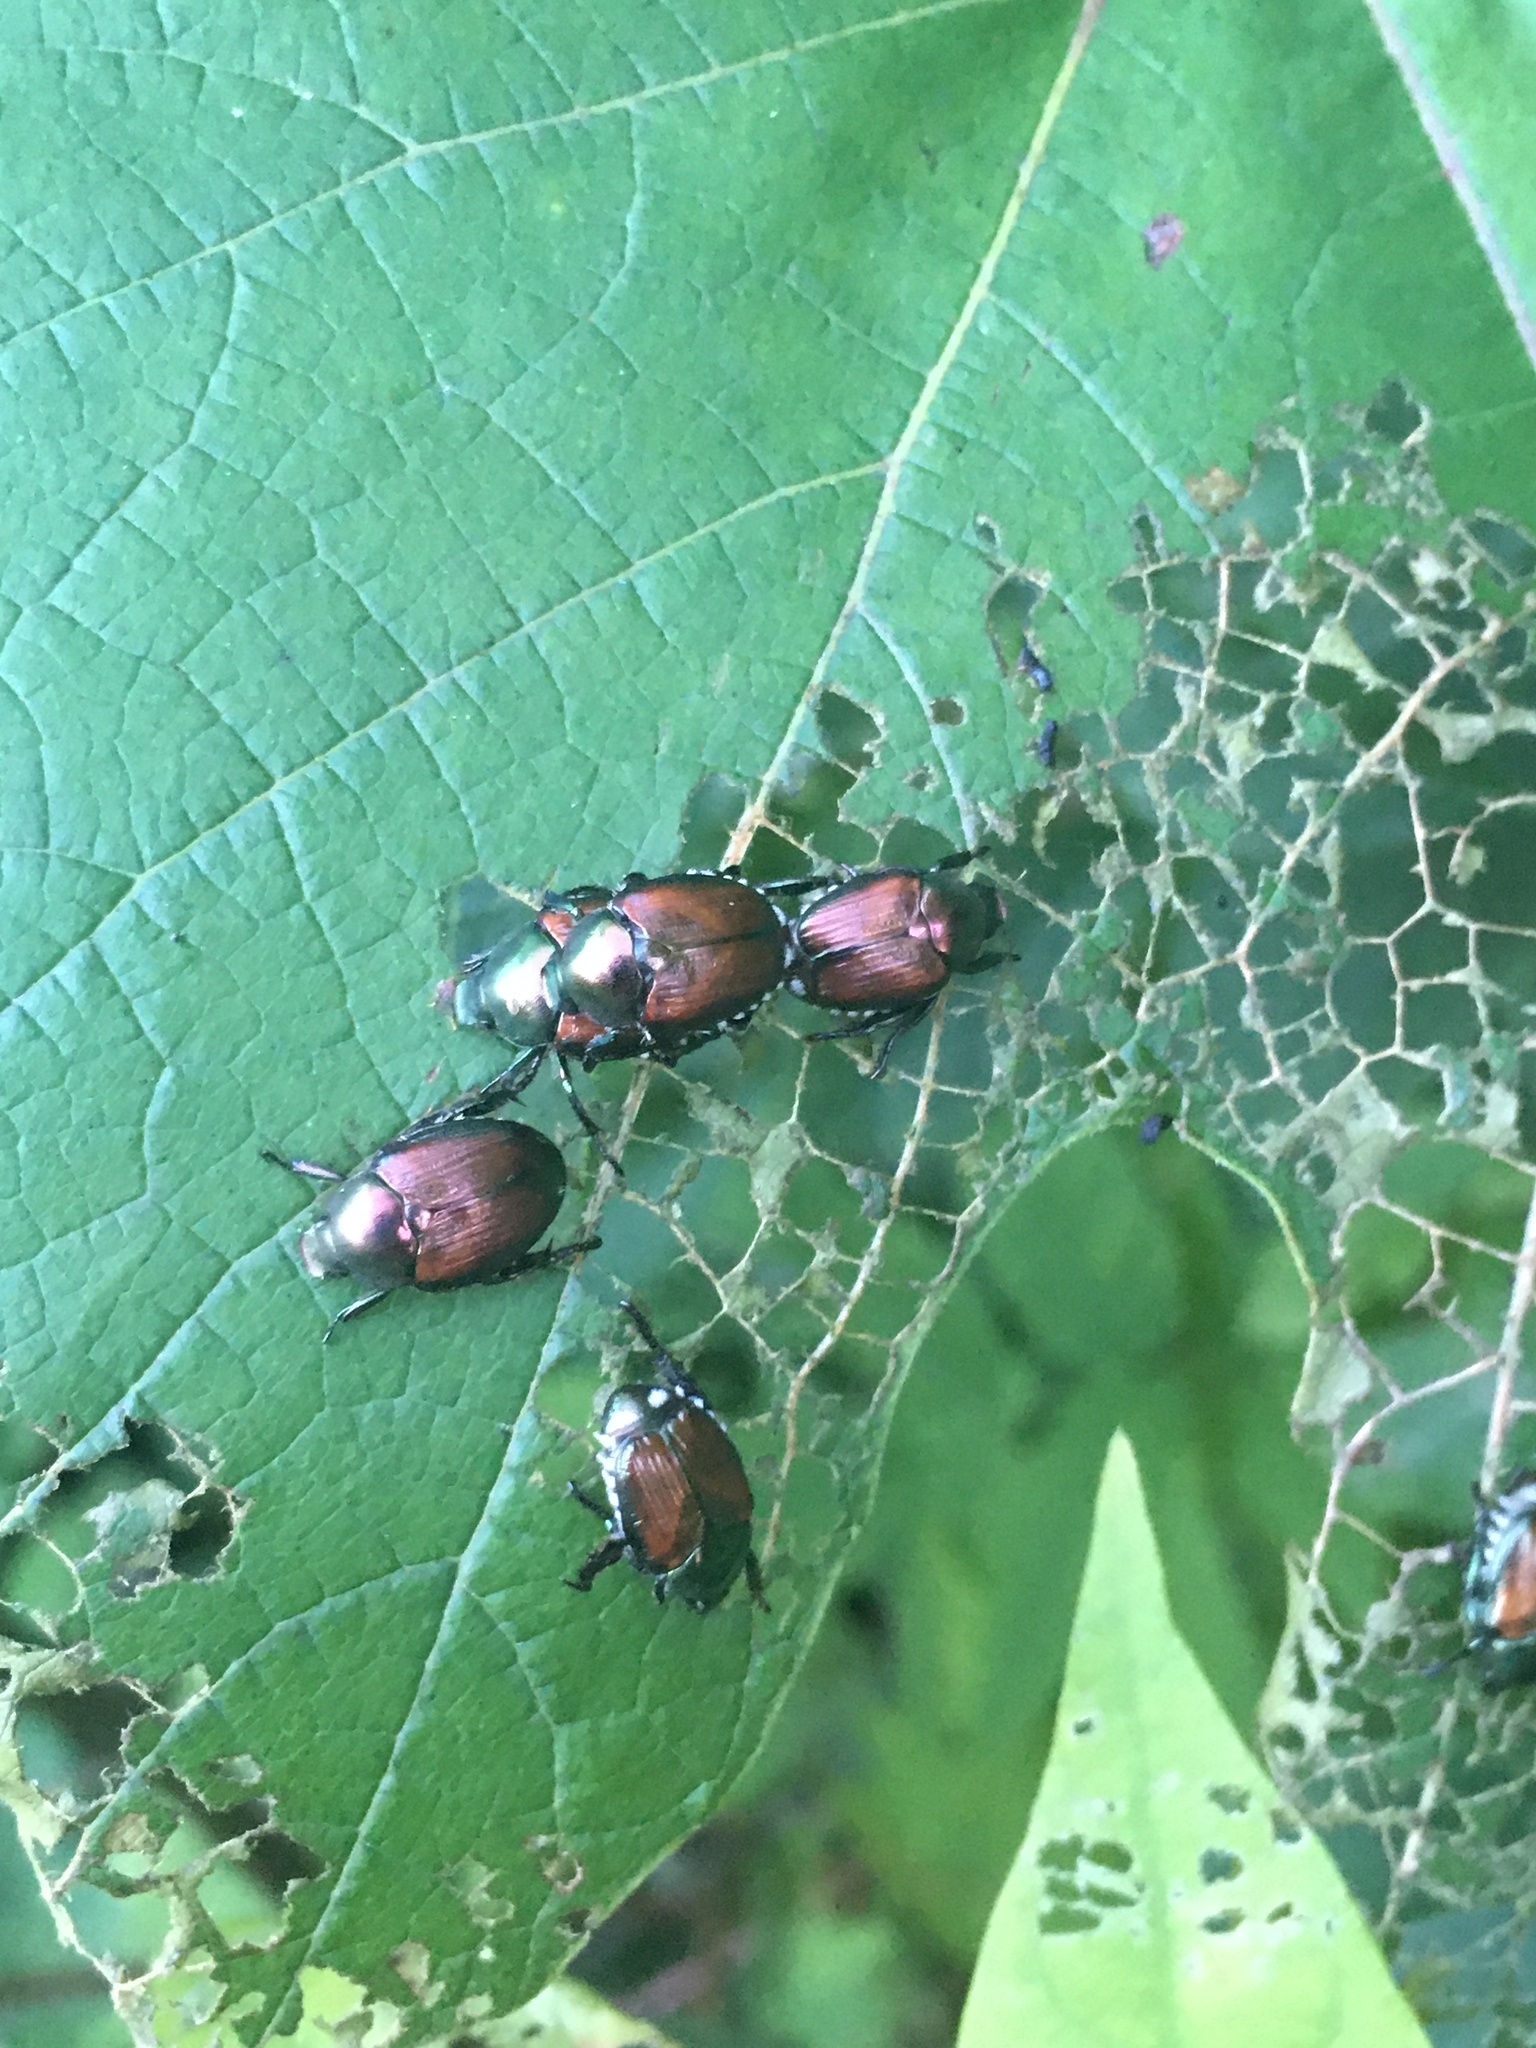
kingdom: Animalia
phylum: Arthropoda
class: Insecta
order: Coleoptera
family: Scarabaeidae
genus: Popillia
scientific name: Popillia japonica
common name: Japanese beetle
